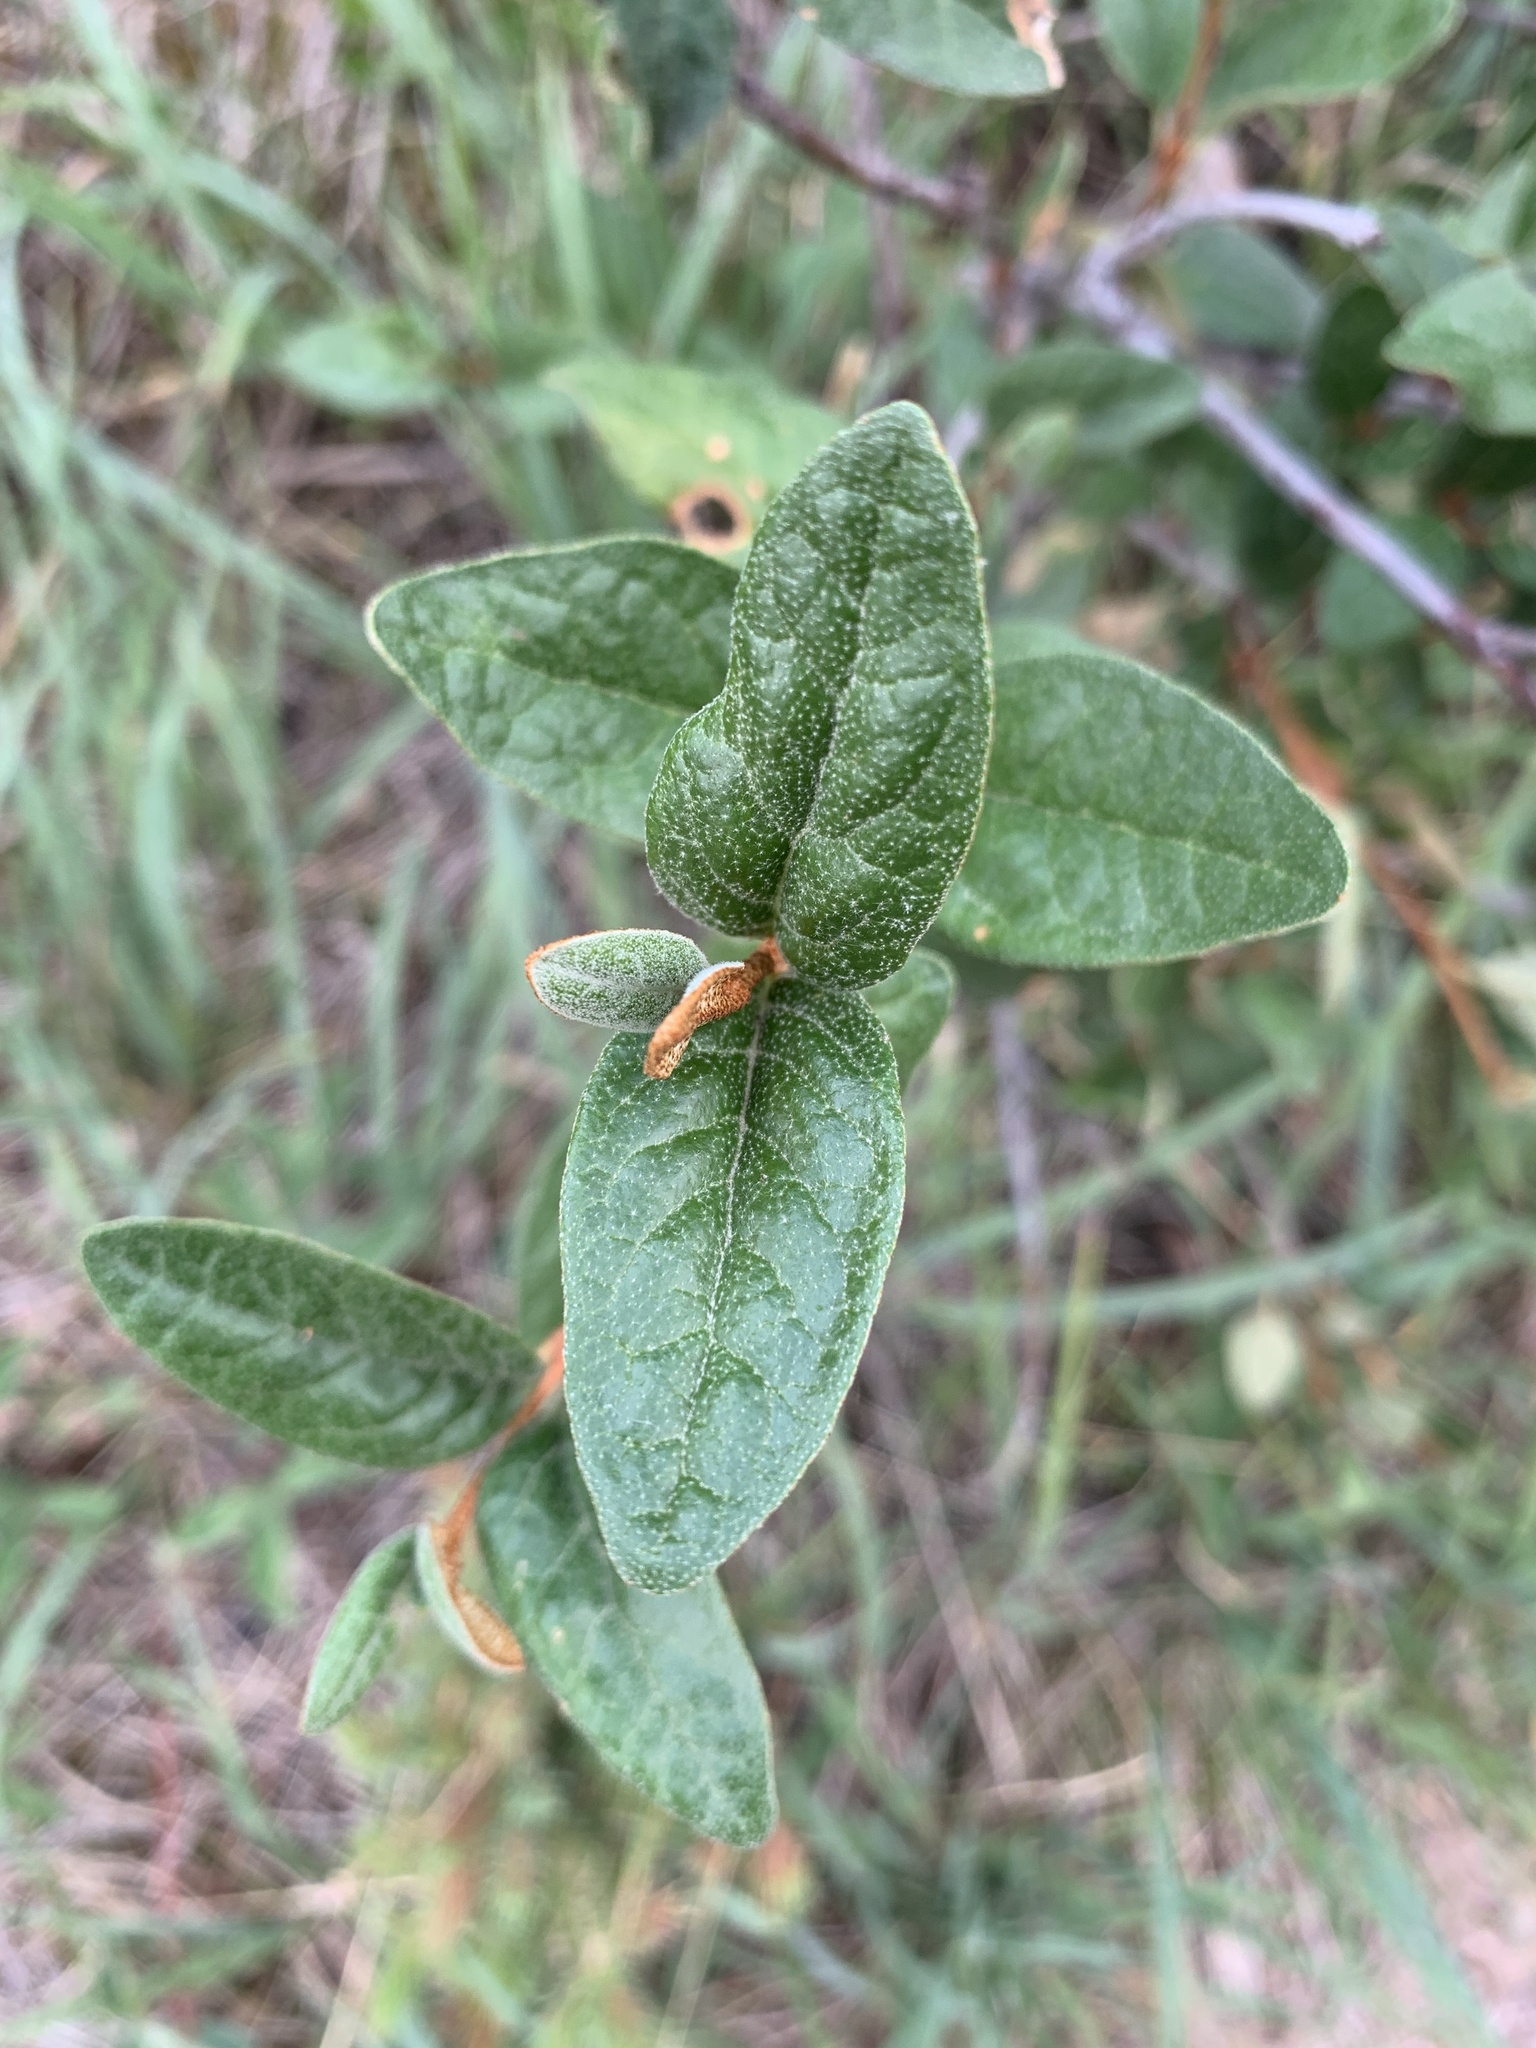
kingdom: Plantae
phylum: Tracheophyta
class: Magnoliopsida
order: Rosales
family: Elaeagnaceae
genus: Shepherdia
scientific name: Shepherdia canadensis
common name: Soapberry
